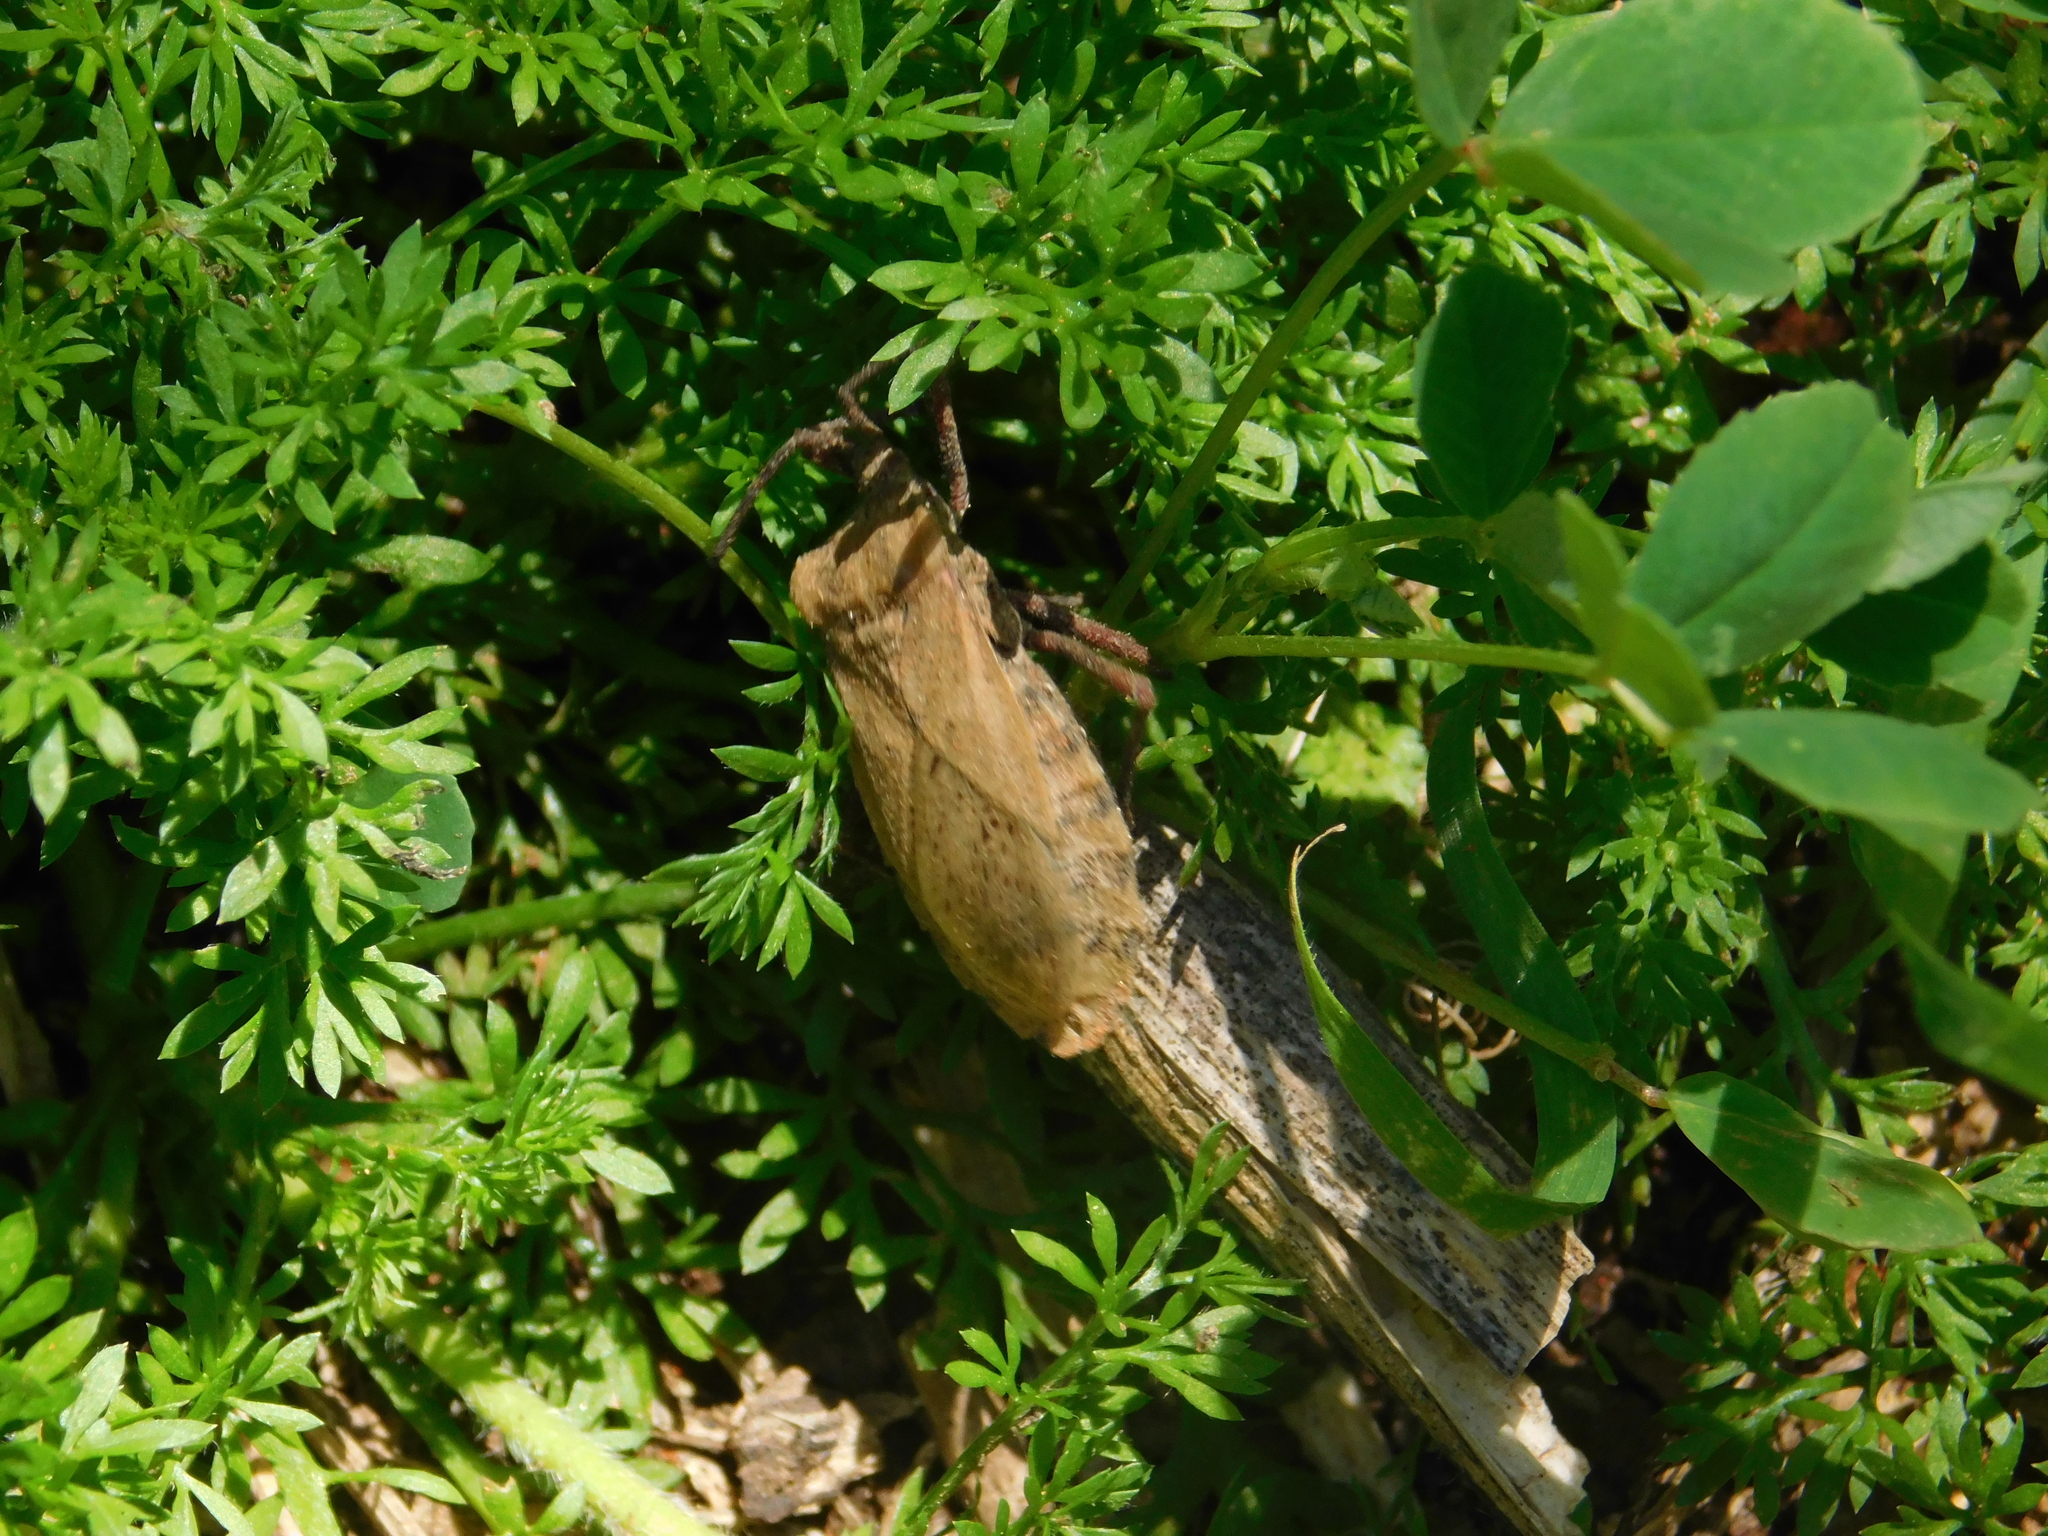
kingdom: Animalia
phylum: Arthropoda
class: Insecta
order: Hemiptera
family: Coreidae
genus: Spartocera
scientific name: Spartocera fusca
